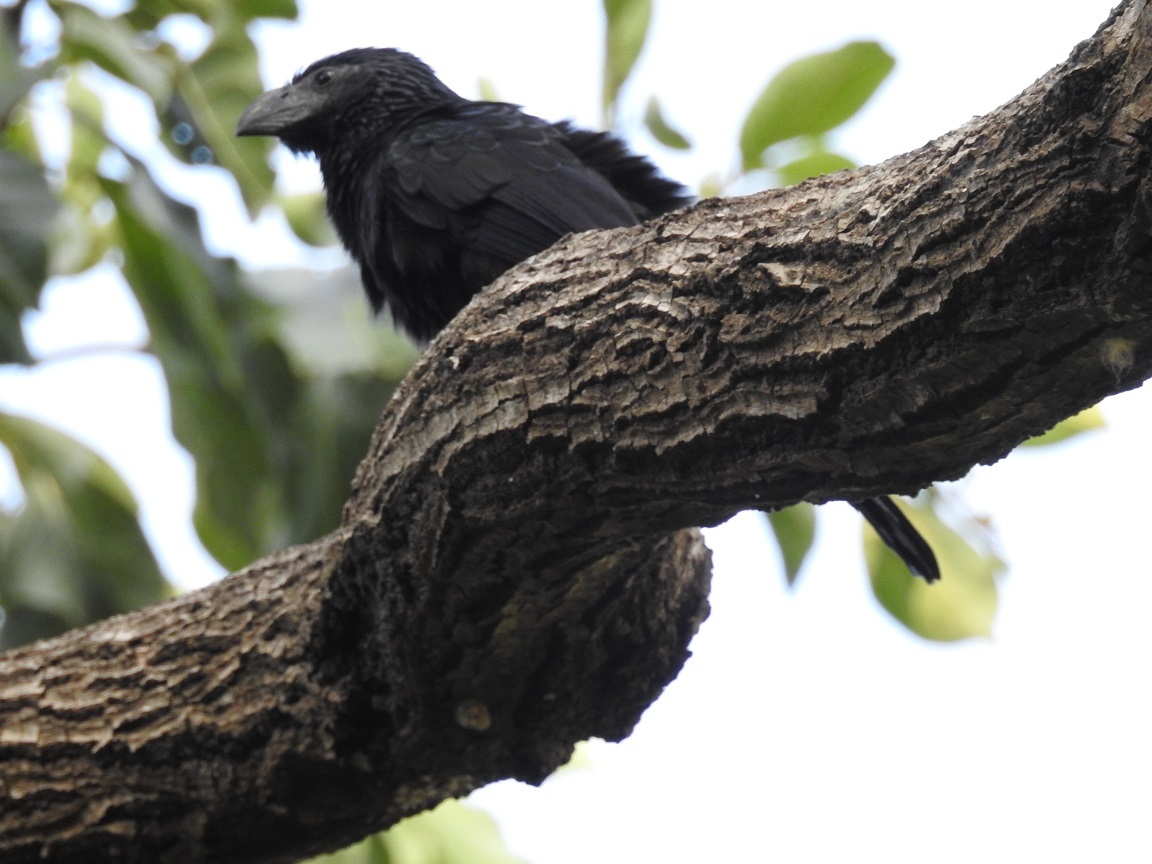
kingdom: Animalia
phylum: Chordata
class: Aves
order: Cuculiformes
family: Cuculidae
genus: Crotophaga
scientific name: Crotophaga sulcirostris
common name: Groove-billed ani
